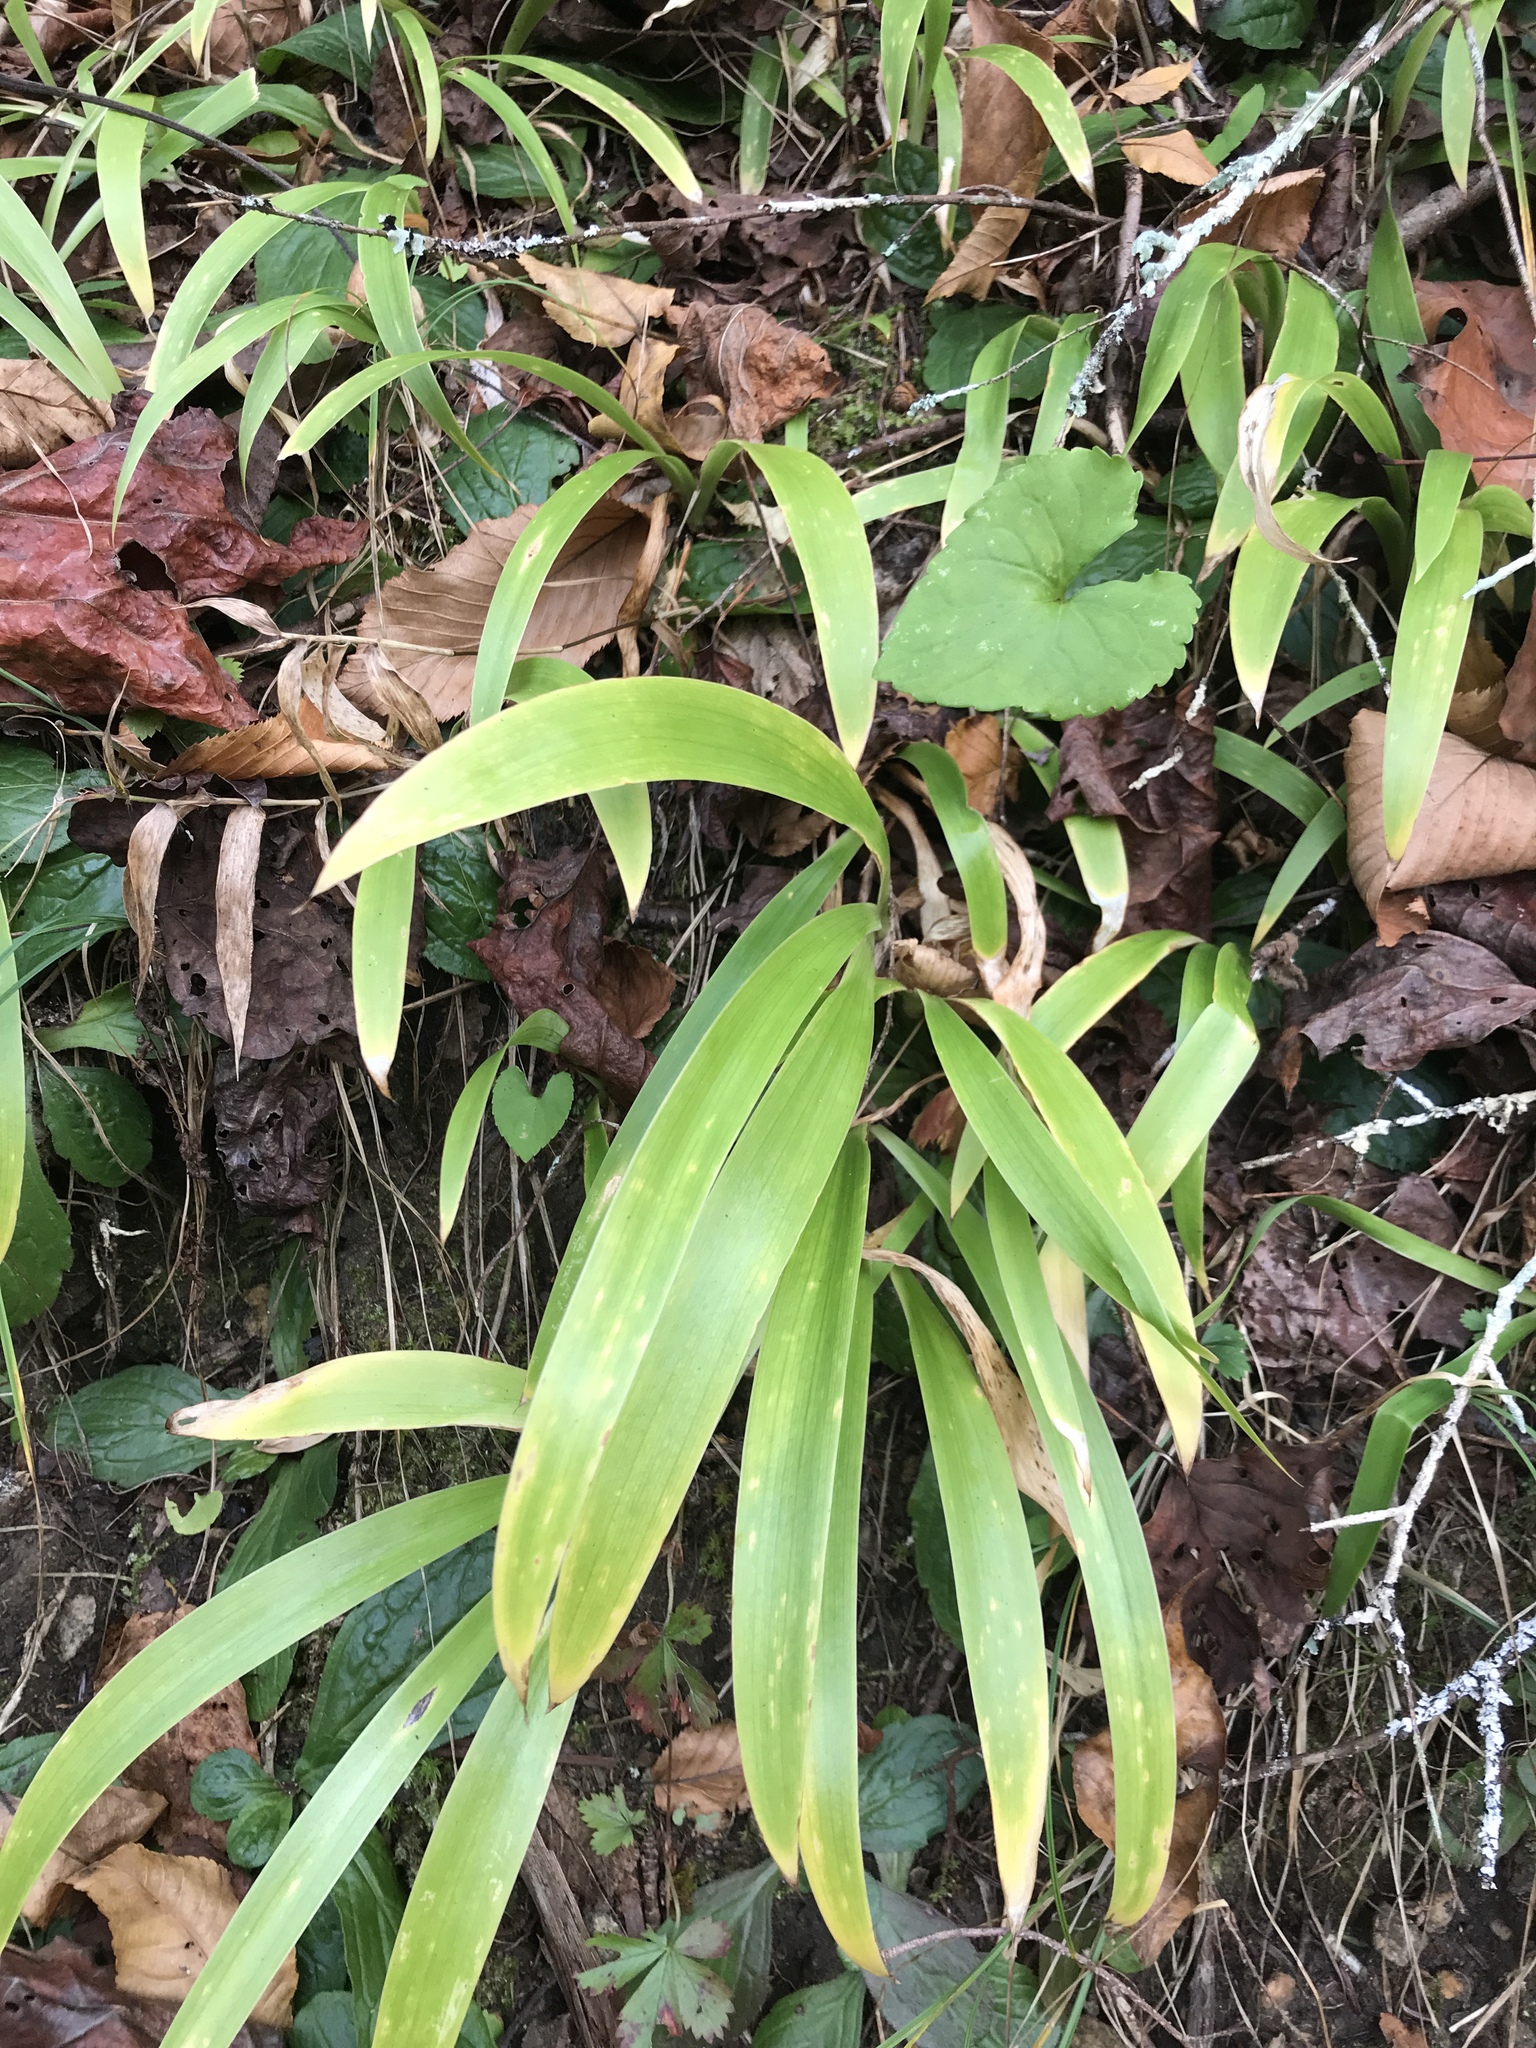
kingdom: Plantae
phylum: Tracheophyta
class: Liliopsida
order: Asparagales
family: Iridaceae
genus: Iris
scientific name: Iris cristata
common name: Crested iris
